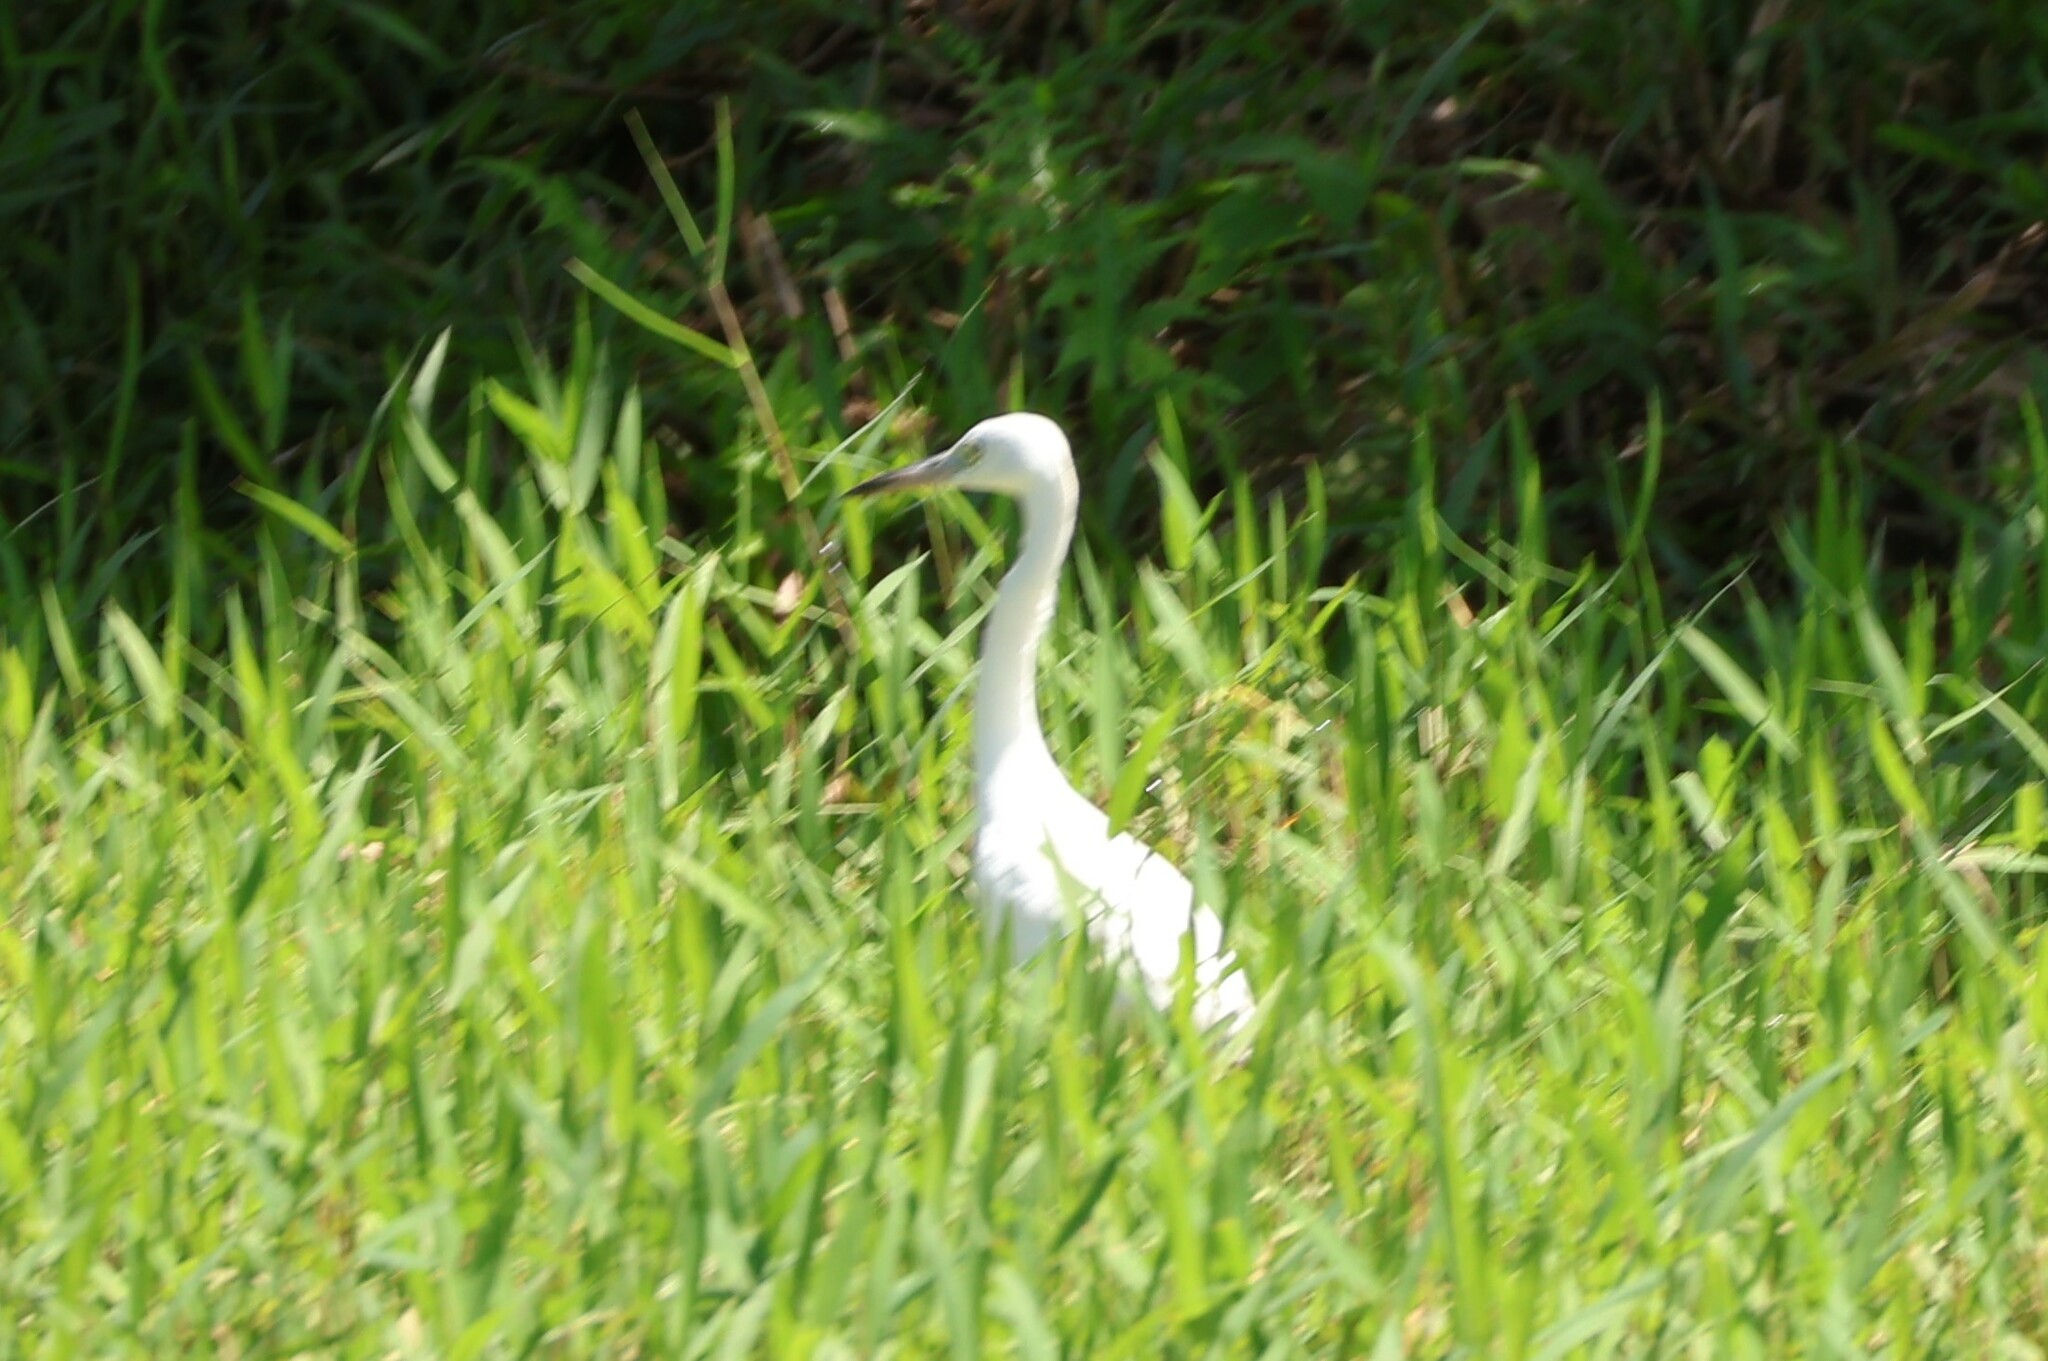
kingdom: Animalia
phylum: Chordata
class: Aves
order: Pelecaniformes
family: Ardeidae
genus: Egretta
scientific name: Egretta caerulea
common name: Little blue heron
